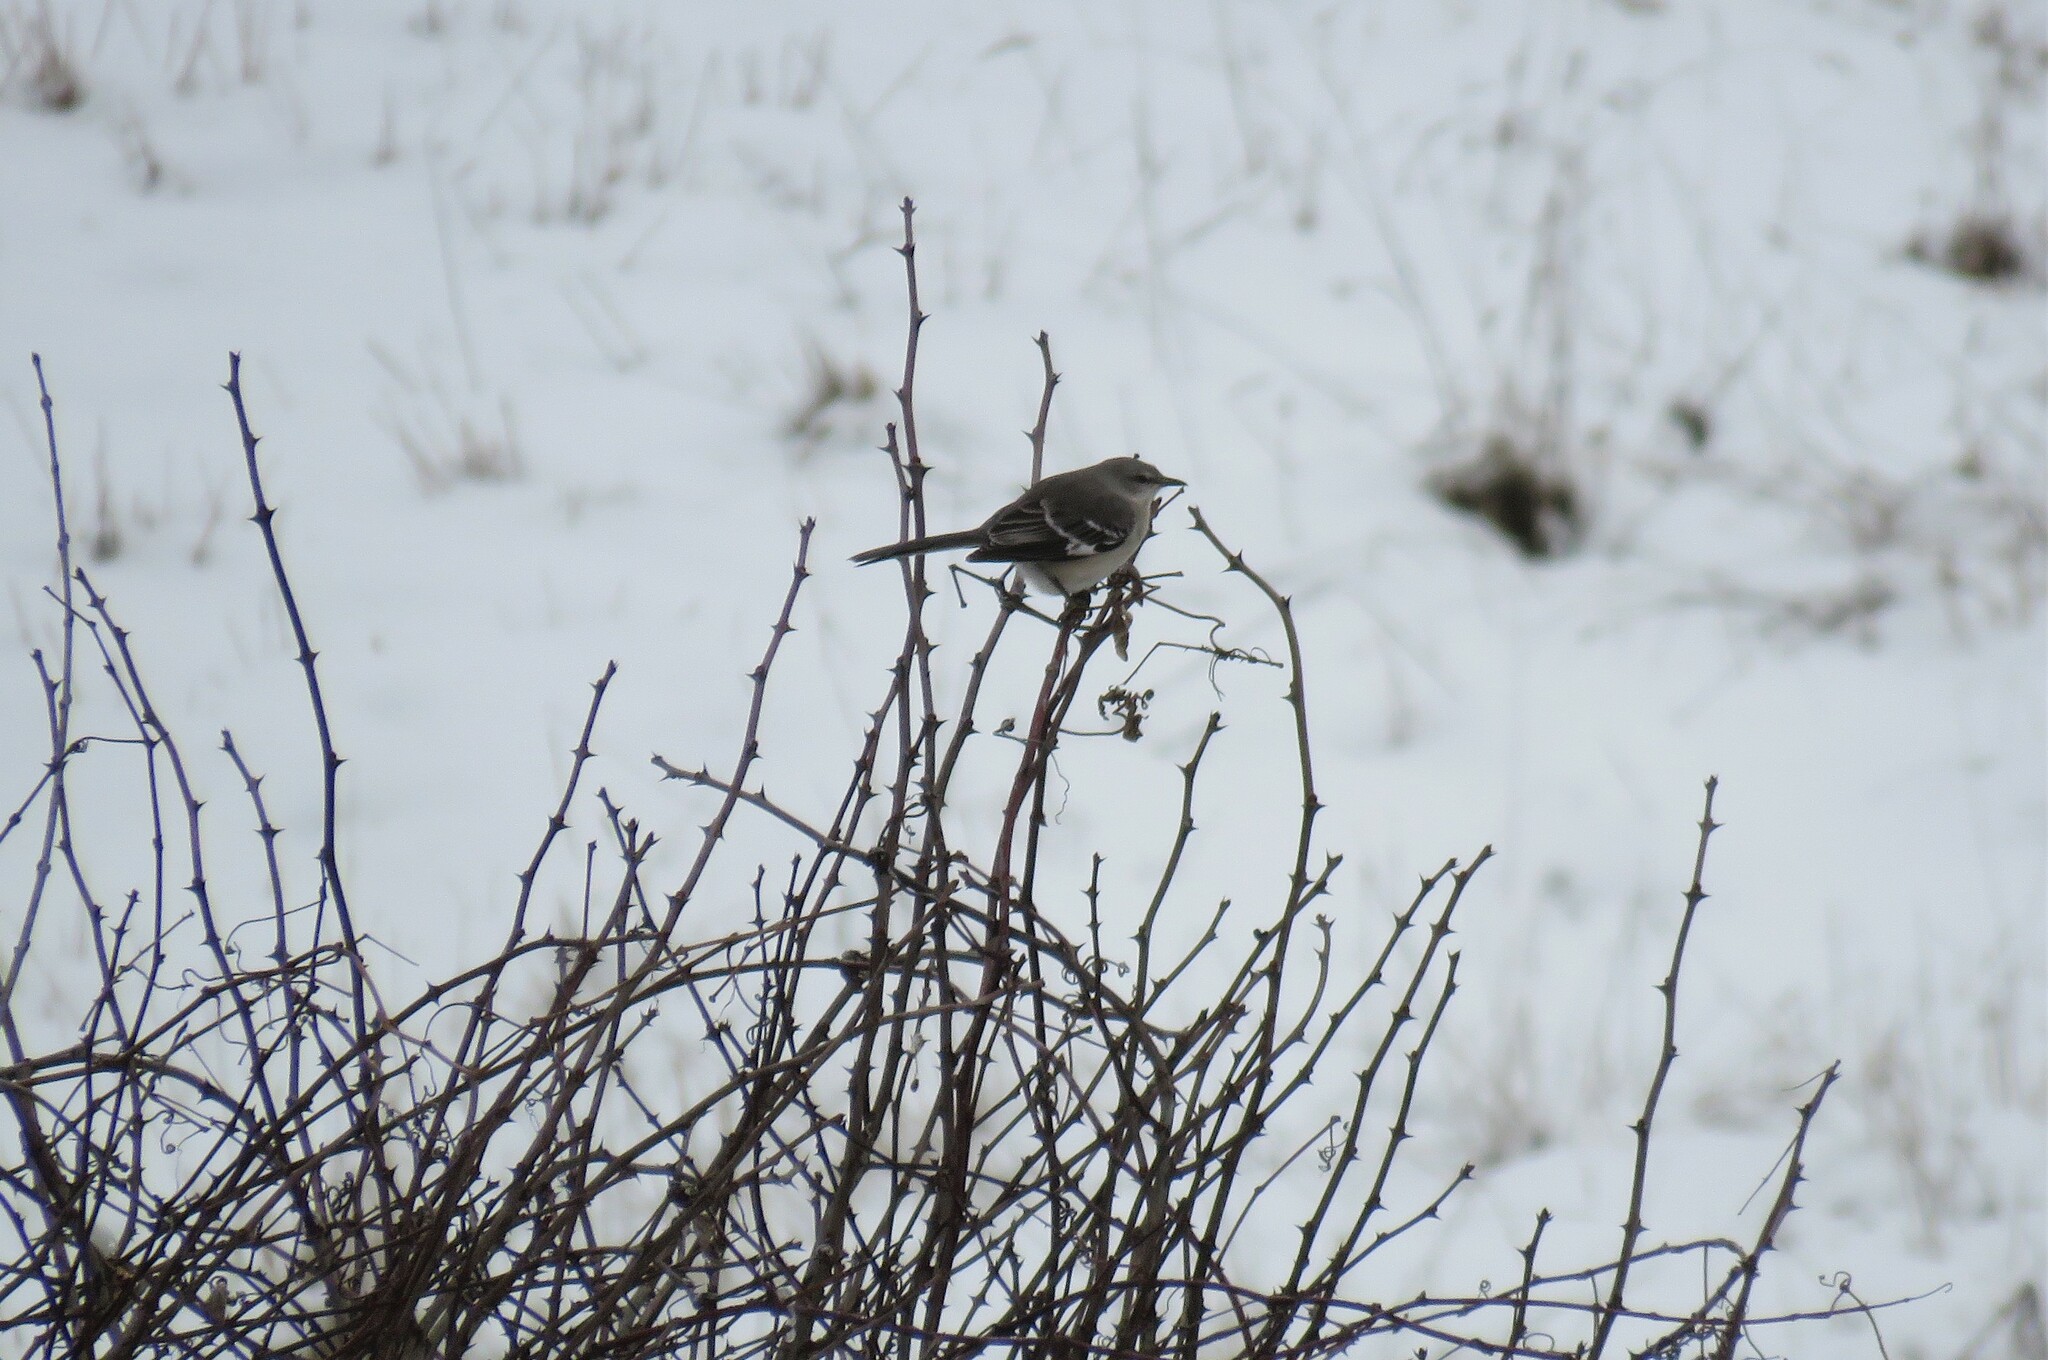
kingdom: Animalia
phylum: Chordata
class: Aves
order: Passeriformes
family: Mimidae
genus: Mimus
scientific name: Mimus polyglottos
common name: Northern mockingbird
